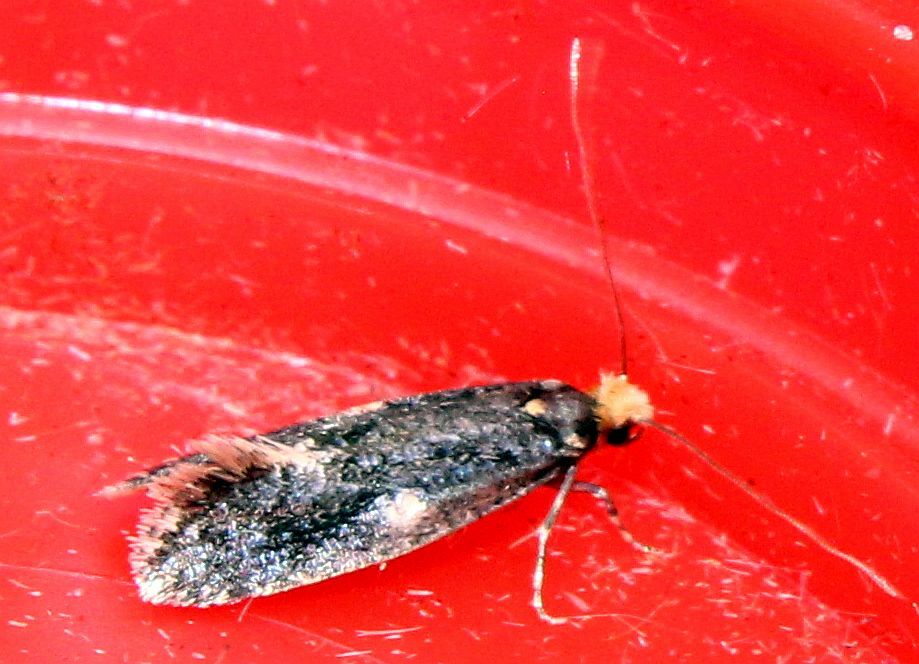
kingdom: Animalia
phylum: Arthropoda
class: Insecta
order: Lepidoptera
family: Tineidae
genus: Monopis
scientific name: Monopis weaverella
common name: Carrion moth
